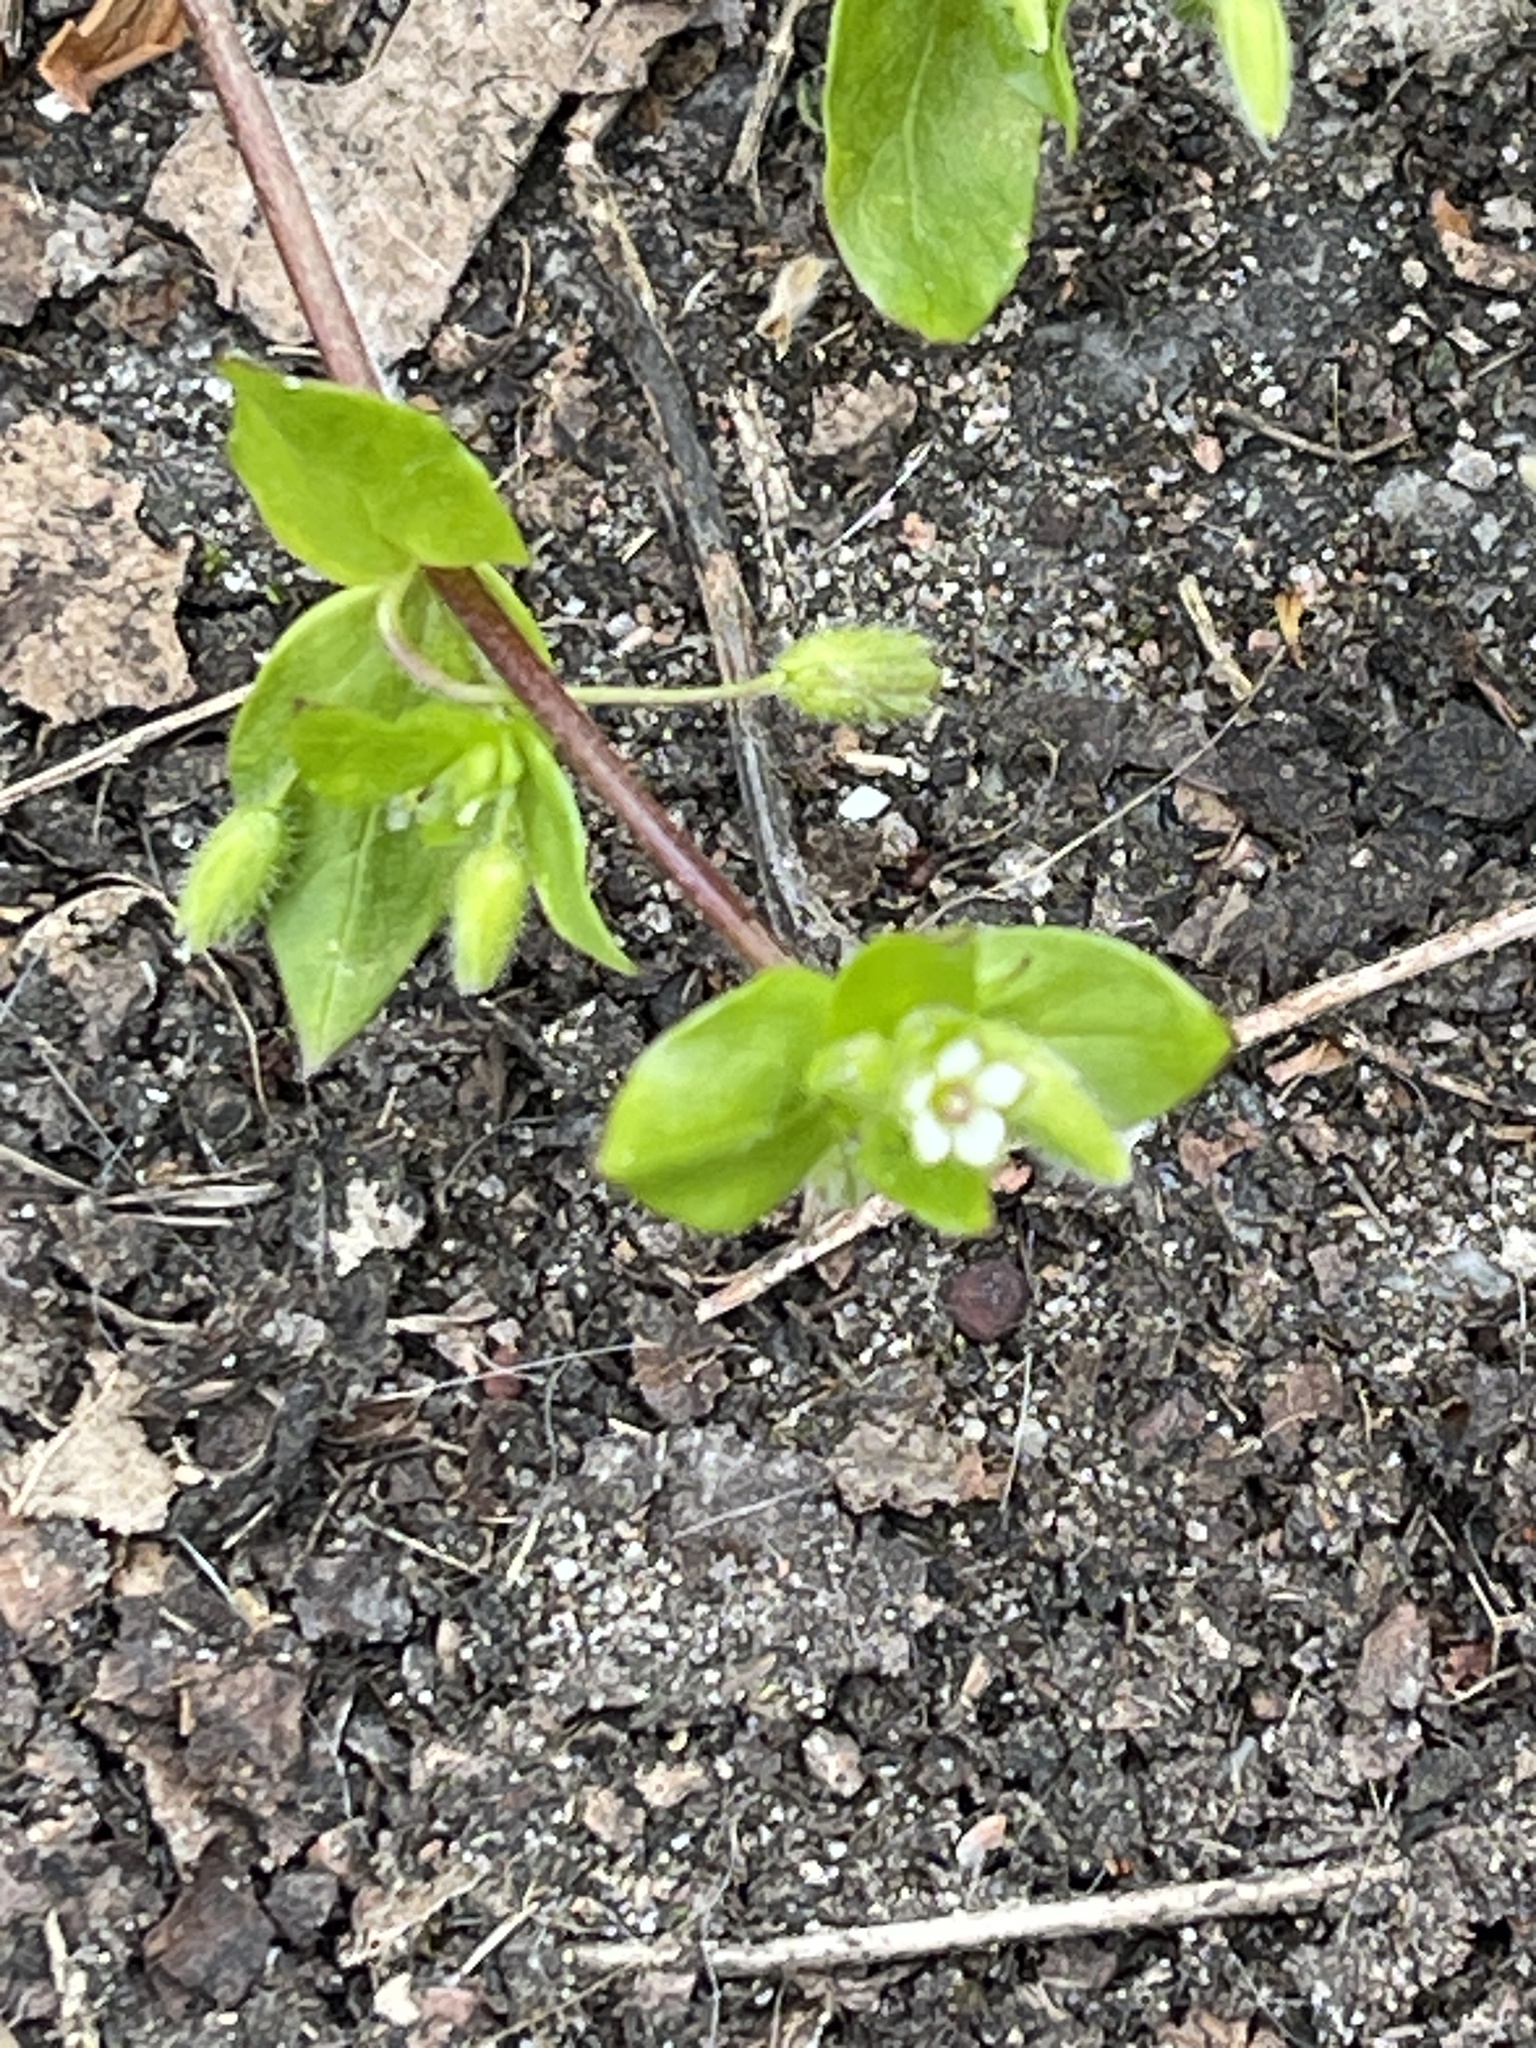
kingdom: Plantae
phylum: Tracheophyta
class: Magnoliopsida
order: Caryophyllales
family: Caryophyllaceae
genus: Stellaria
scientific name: Stellaria media
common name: Common chickweed
